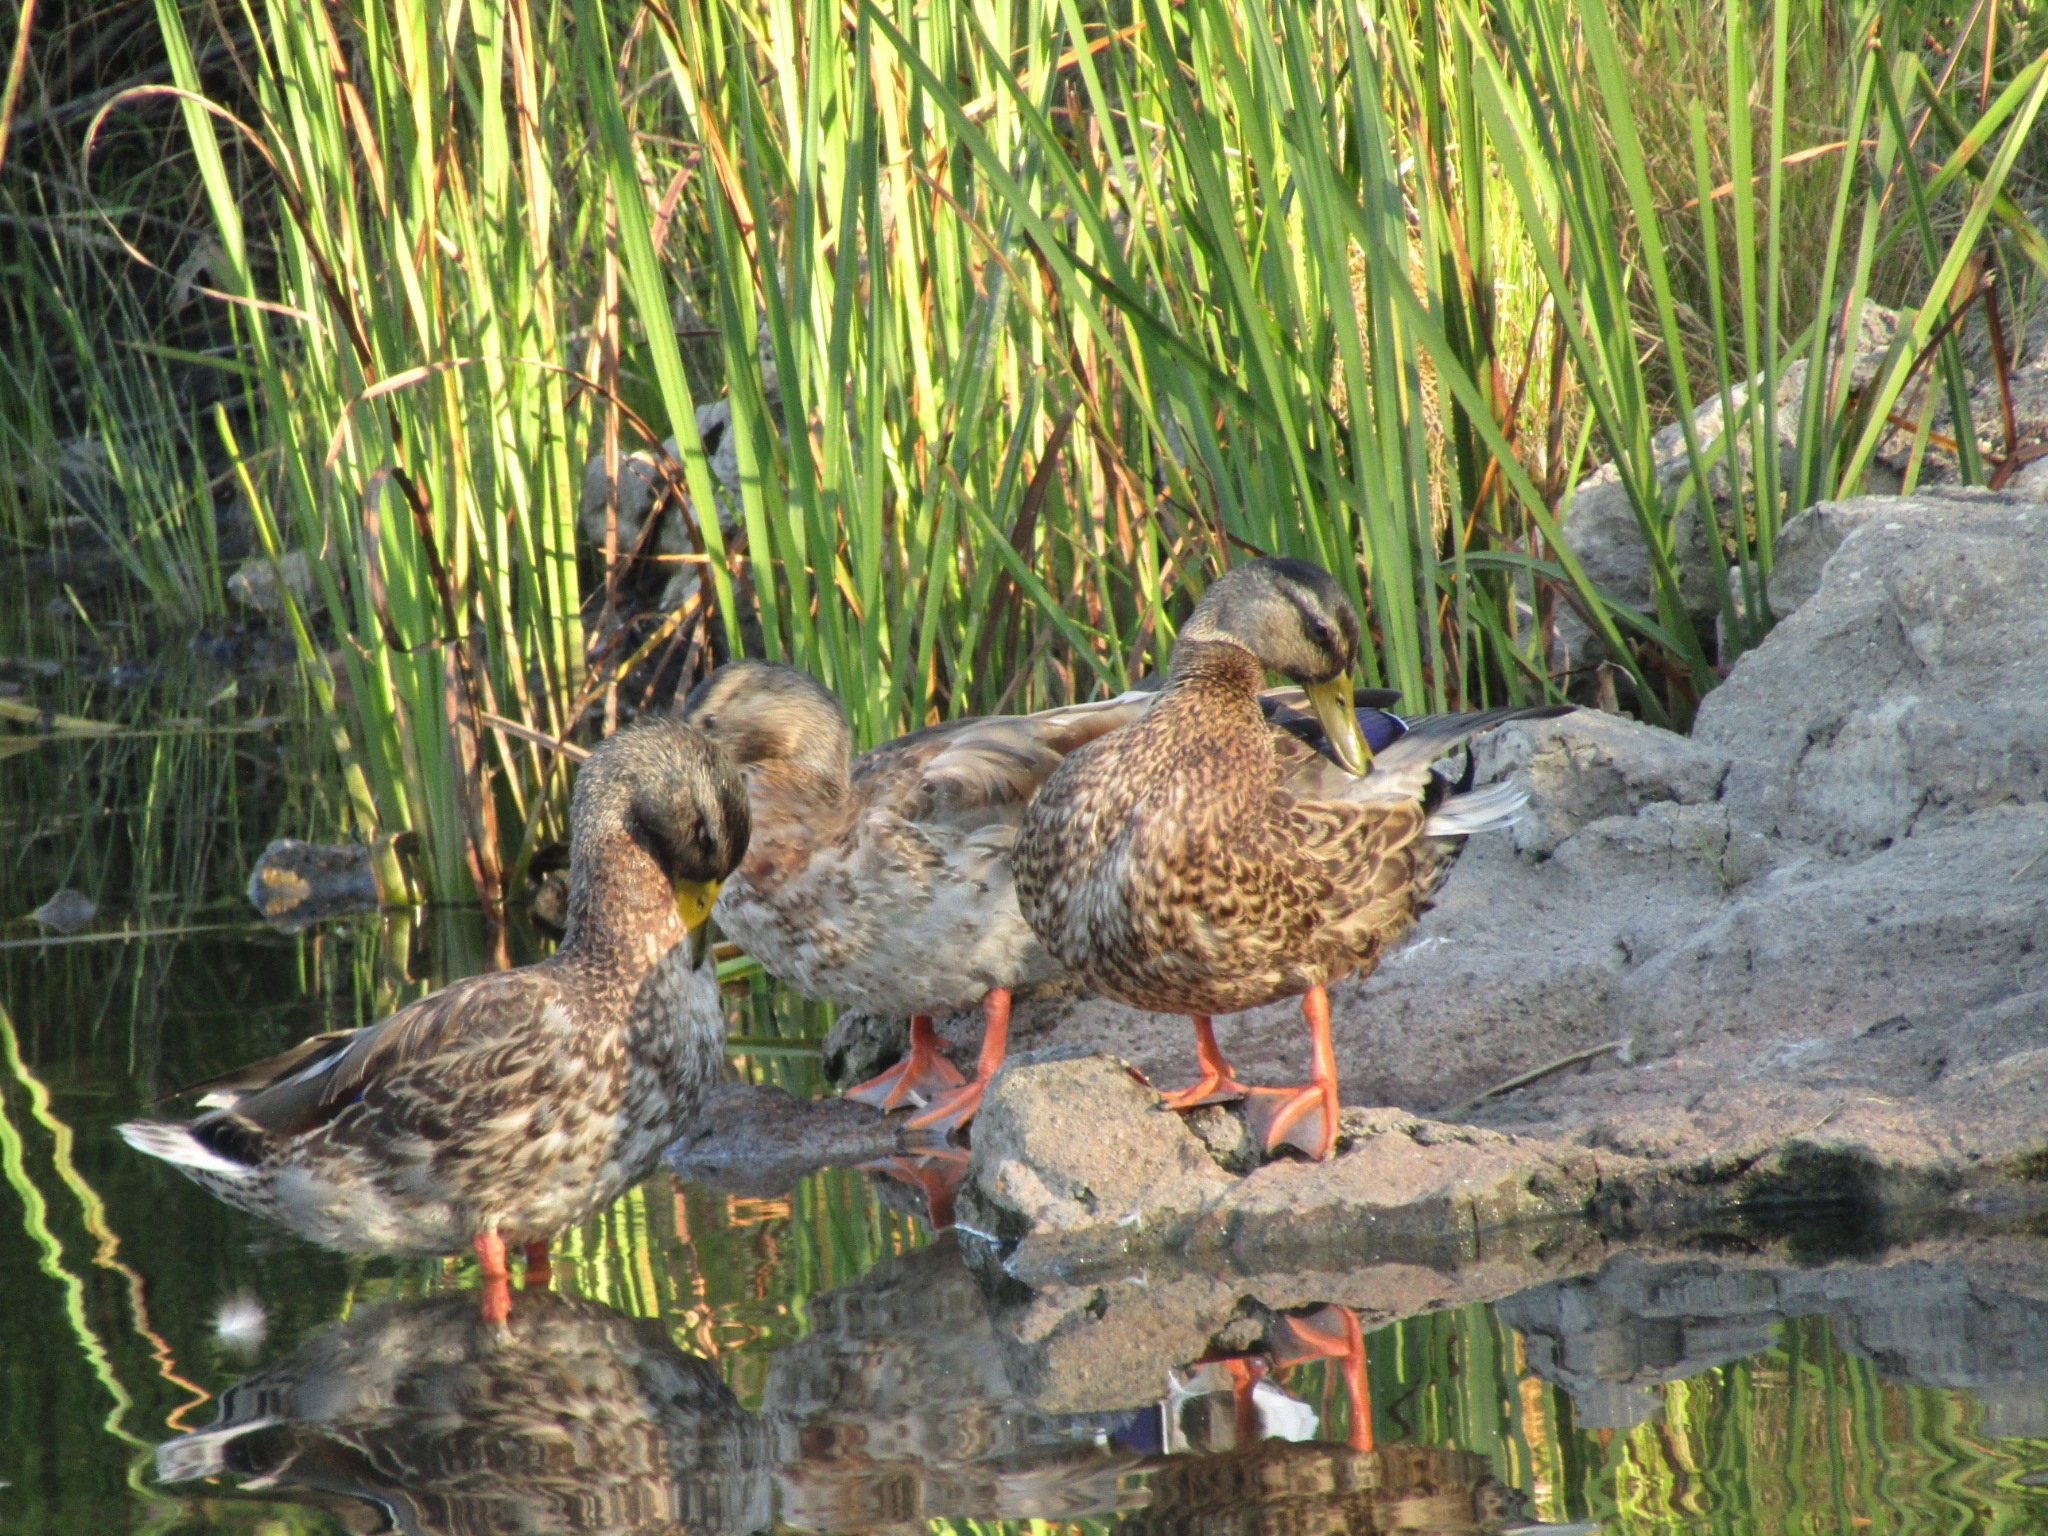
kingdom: Animalia
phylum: Chordata
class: Aves
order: Anseriformes
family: Anatidae
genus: Anas
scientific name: Anas platyrhynchos
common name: Mallard
